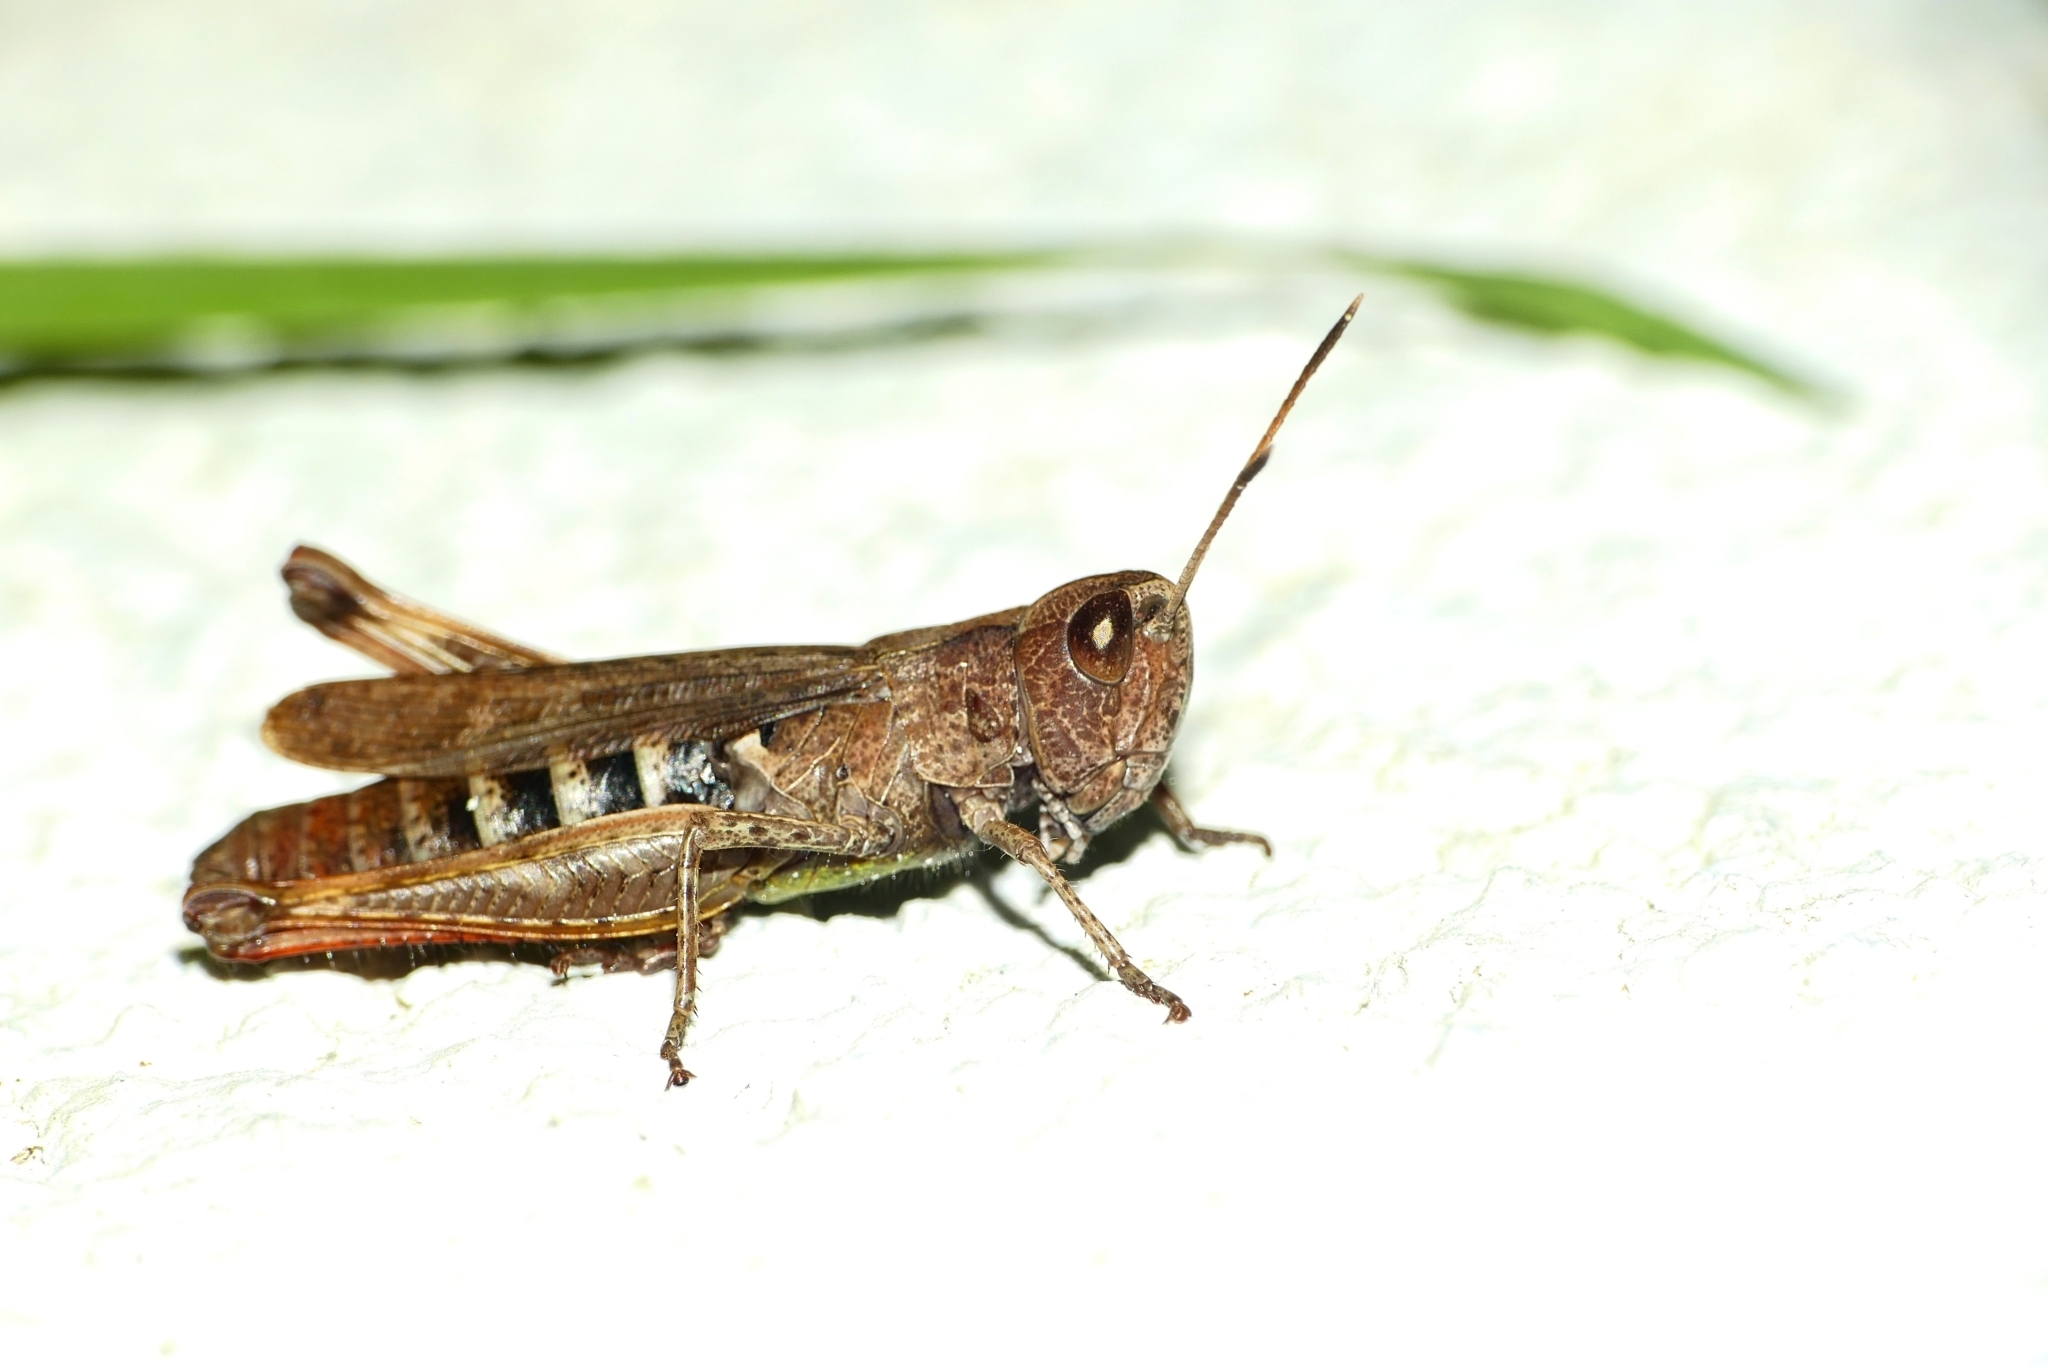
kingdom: Animalia
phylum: Arthropoda
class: Insecta
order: Orthoptera
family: Acrididae
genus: Gomphocerippus
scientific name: Gomphocerippus rufus
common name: Rufous grasshopper
